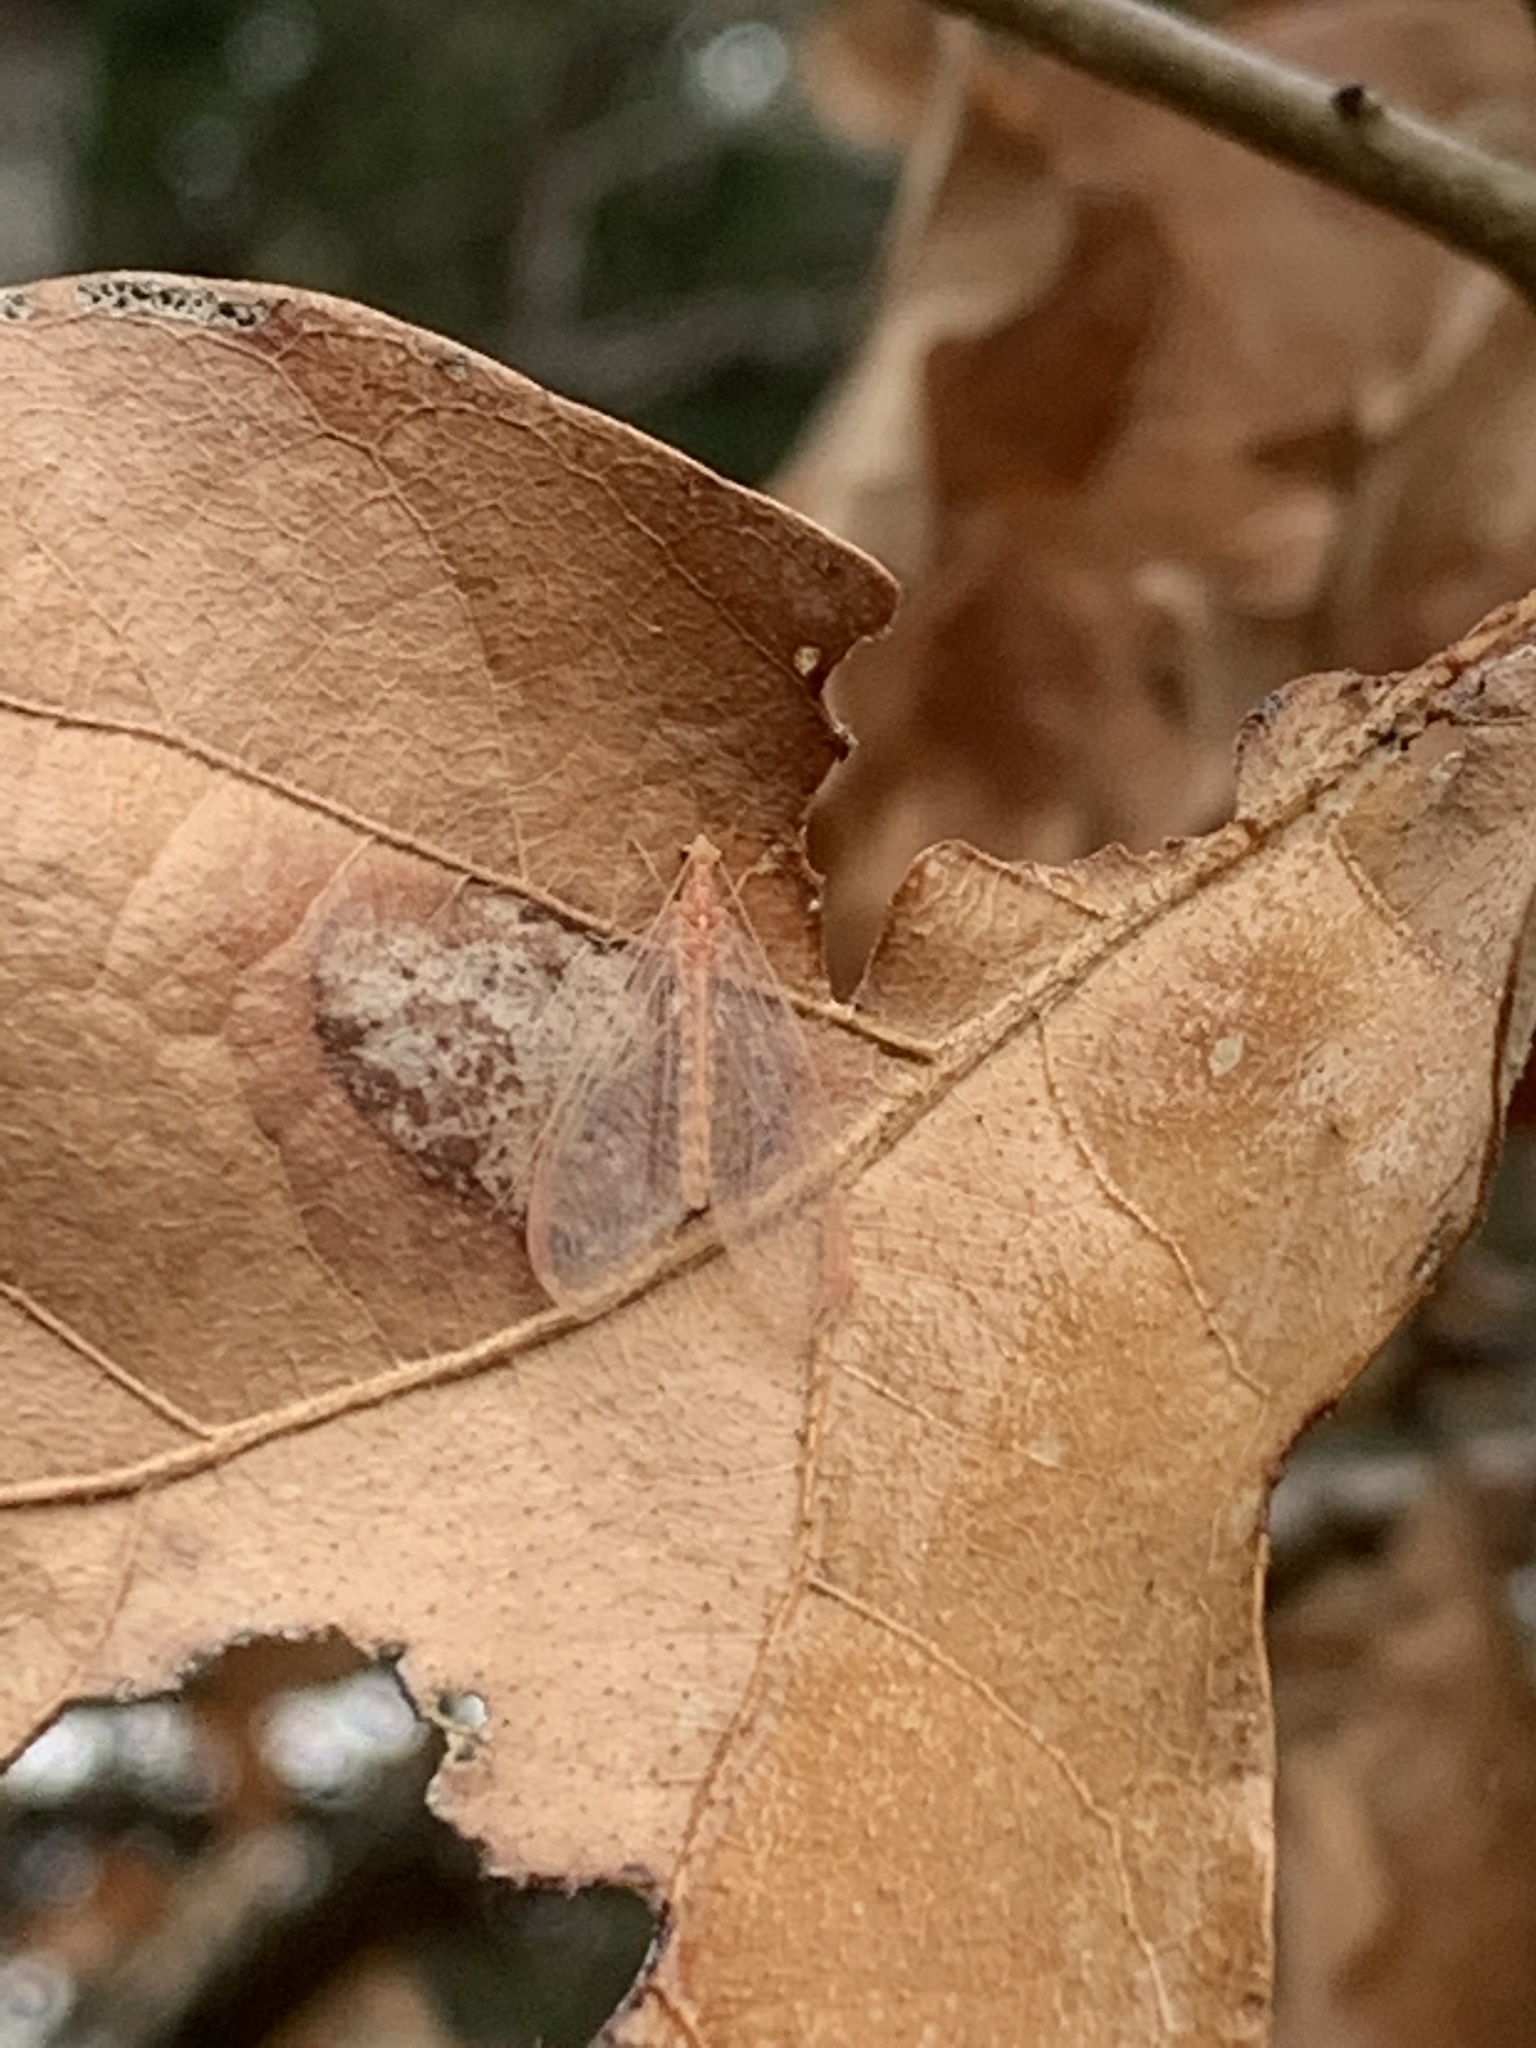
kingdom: Animalia
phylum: Arthropoda
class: Insecta
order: Neuroptera
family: Chrysopidae
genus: Chrysoperla
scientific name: Chrysoperla rufilabris
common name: Red-lipped green lacewing
